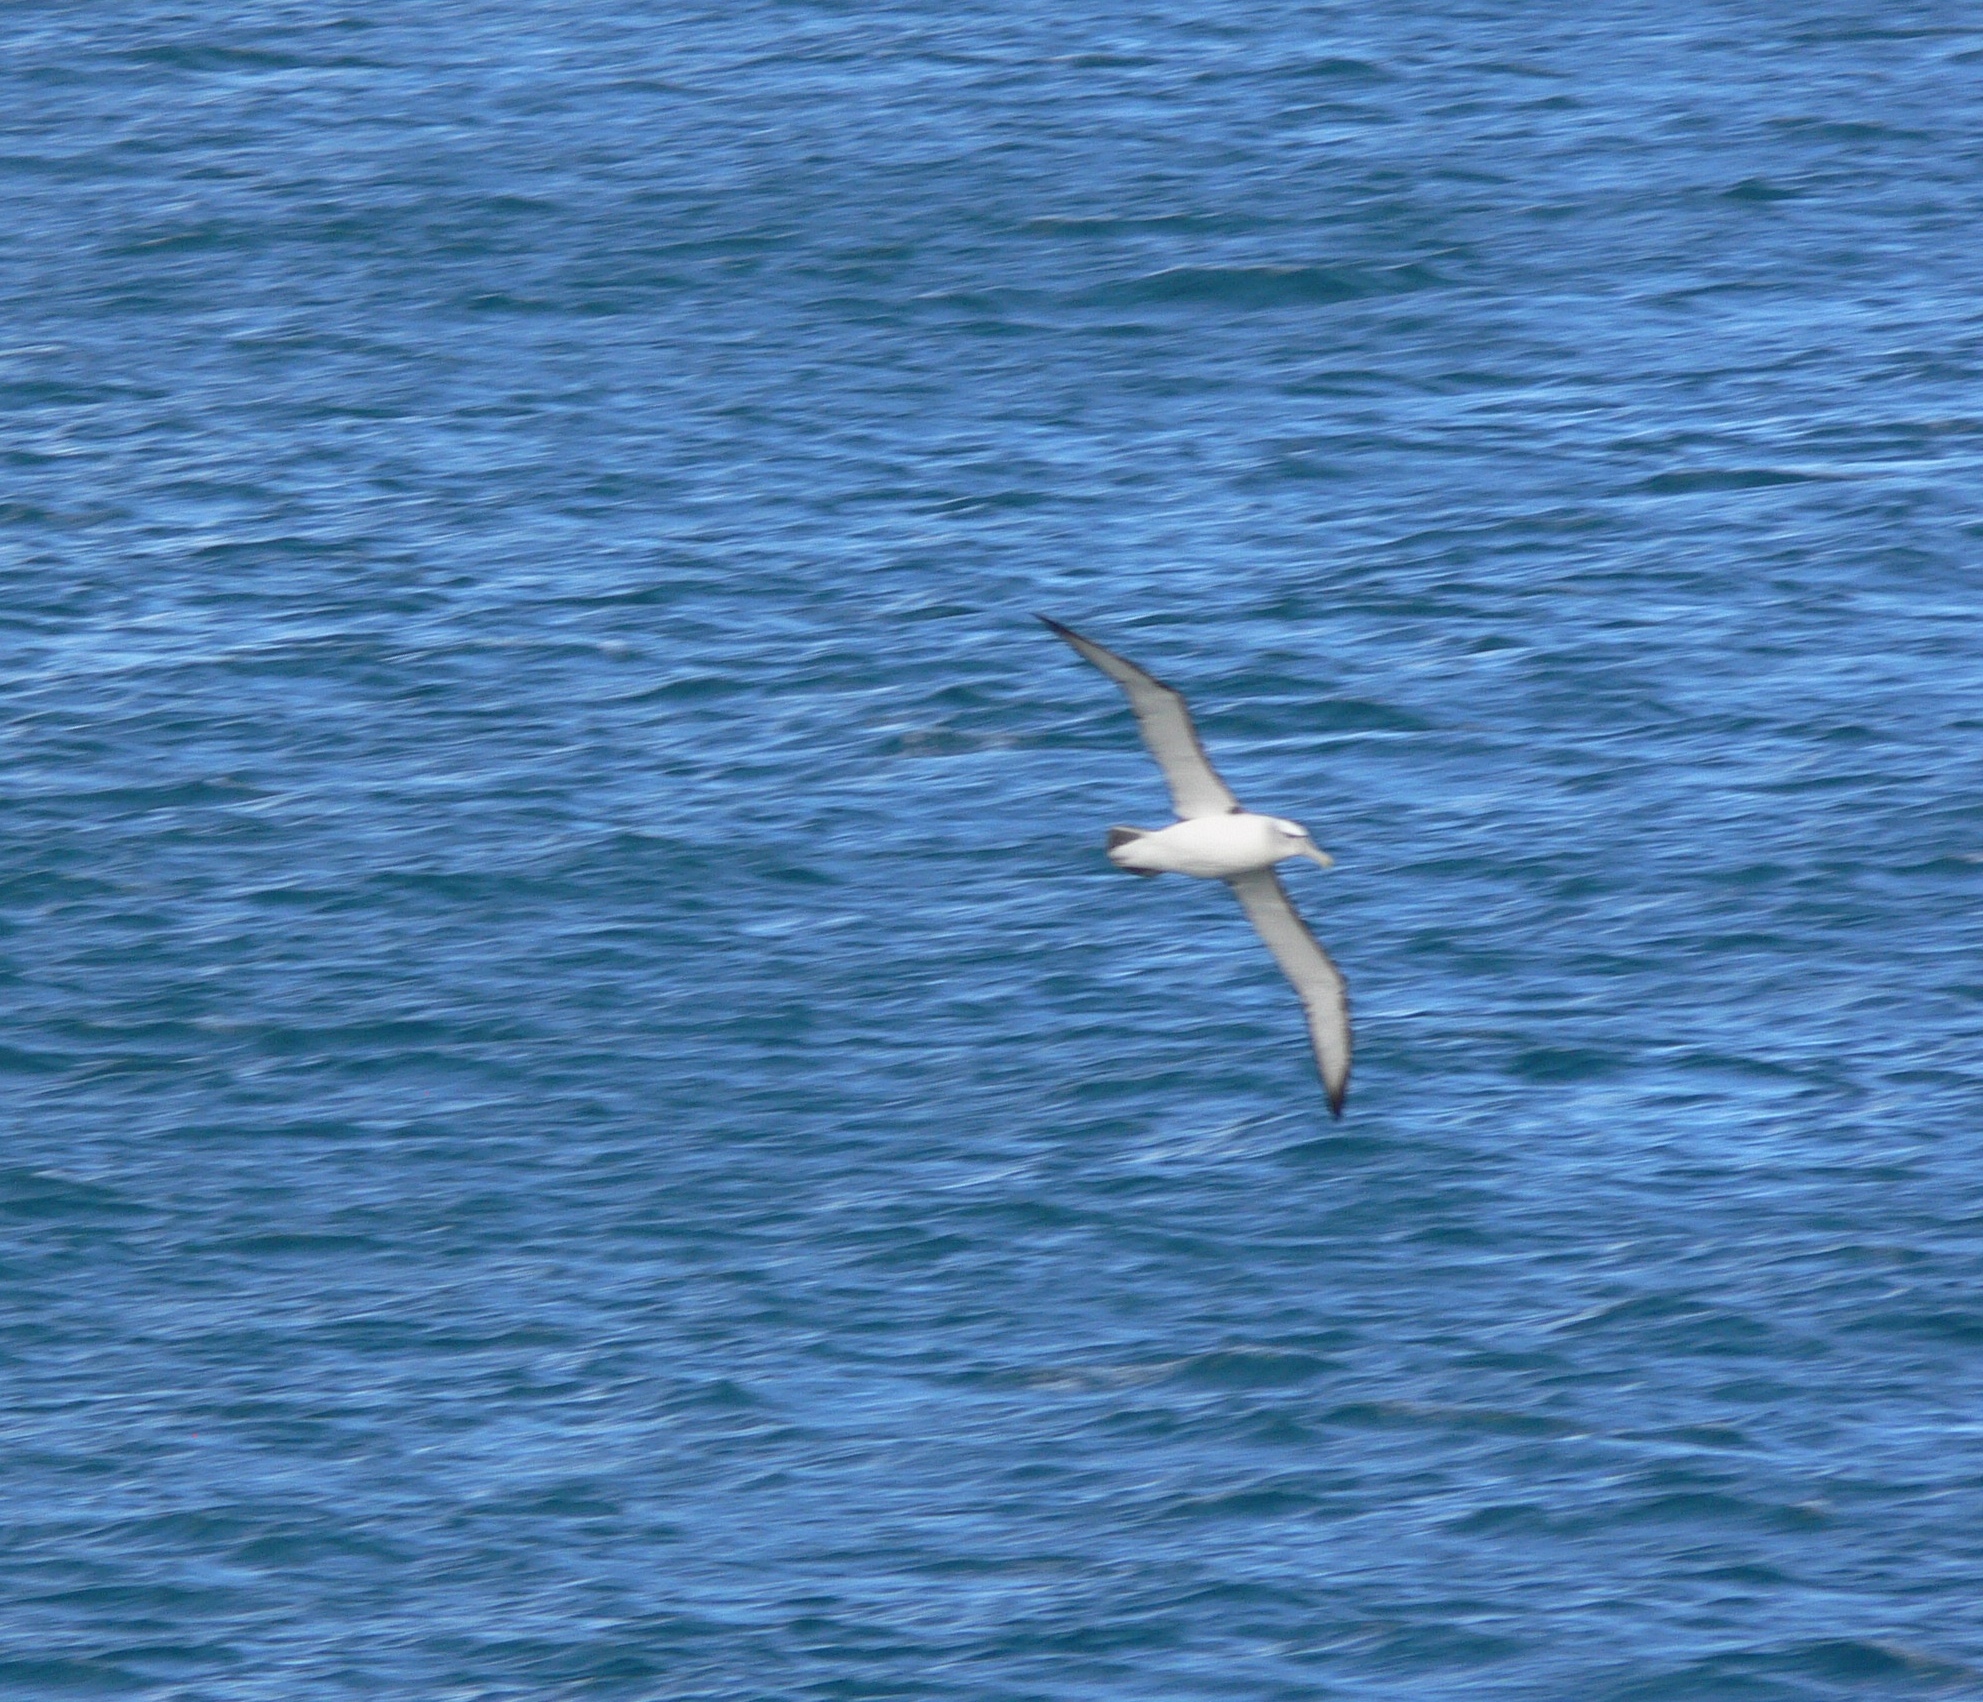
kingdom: Animalia
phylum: Chordata
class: Aves
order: Procellariiformes
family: Diomedeidae
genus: Thalassarche
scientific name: Thalassarche cauta
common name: Shy albatross
